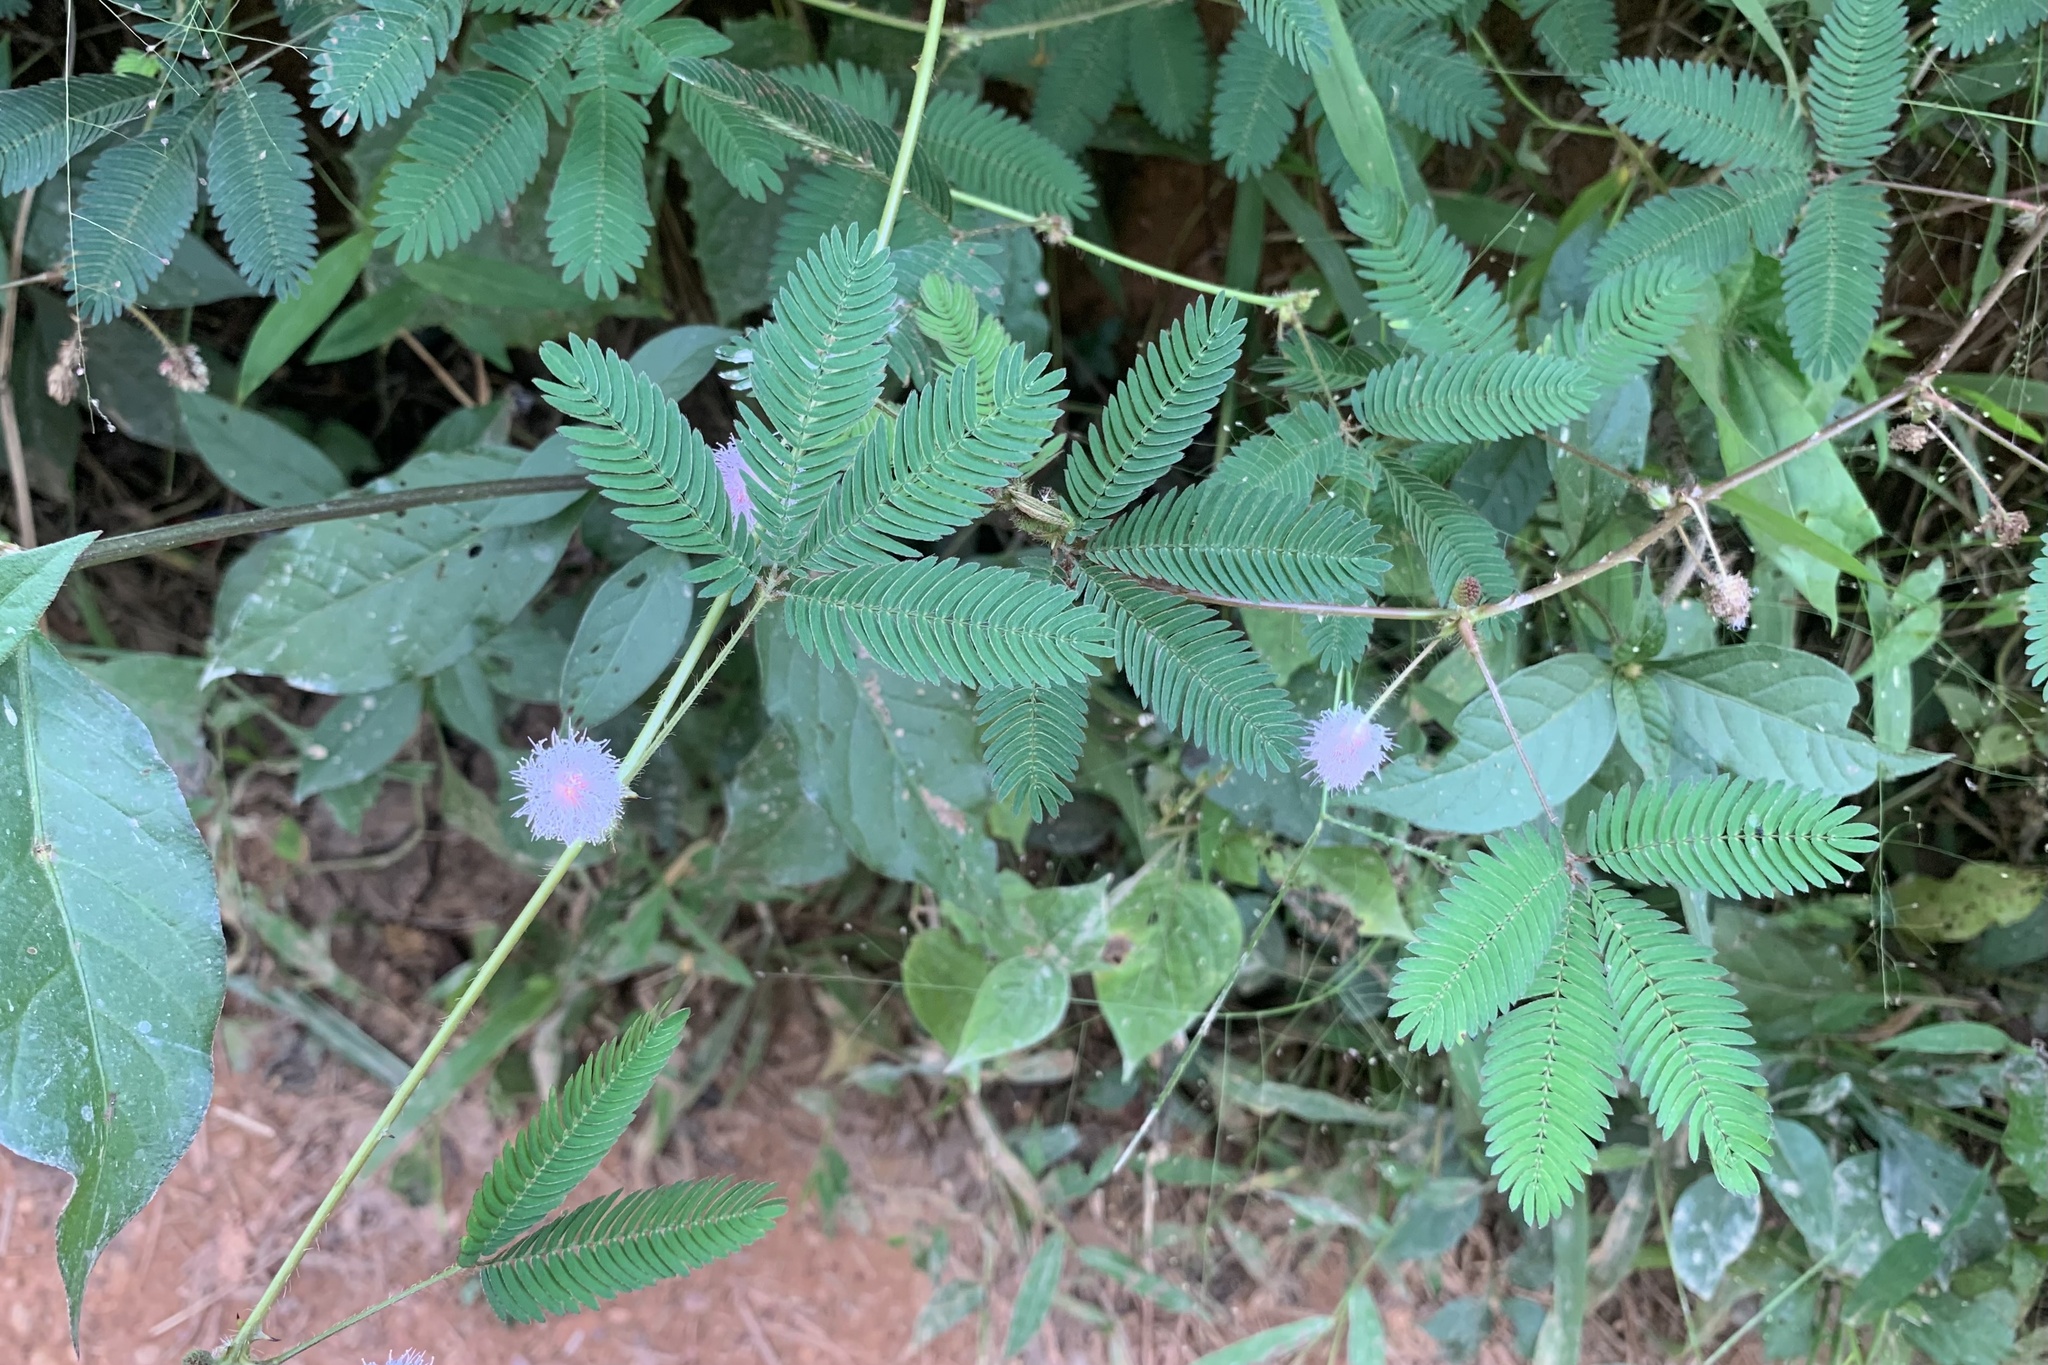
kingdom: Plantae
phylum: Tracheophyta
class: Magnoliopsida
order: Fabales
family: Fabaceae
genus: Mimosa
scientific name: Mimosa pudica
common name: Sensitive plant
